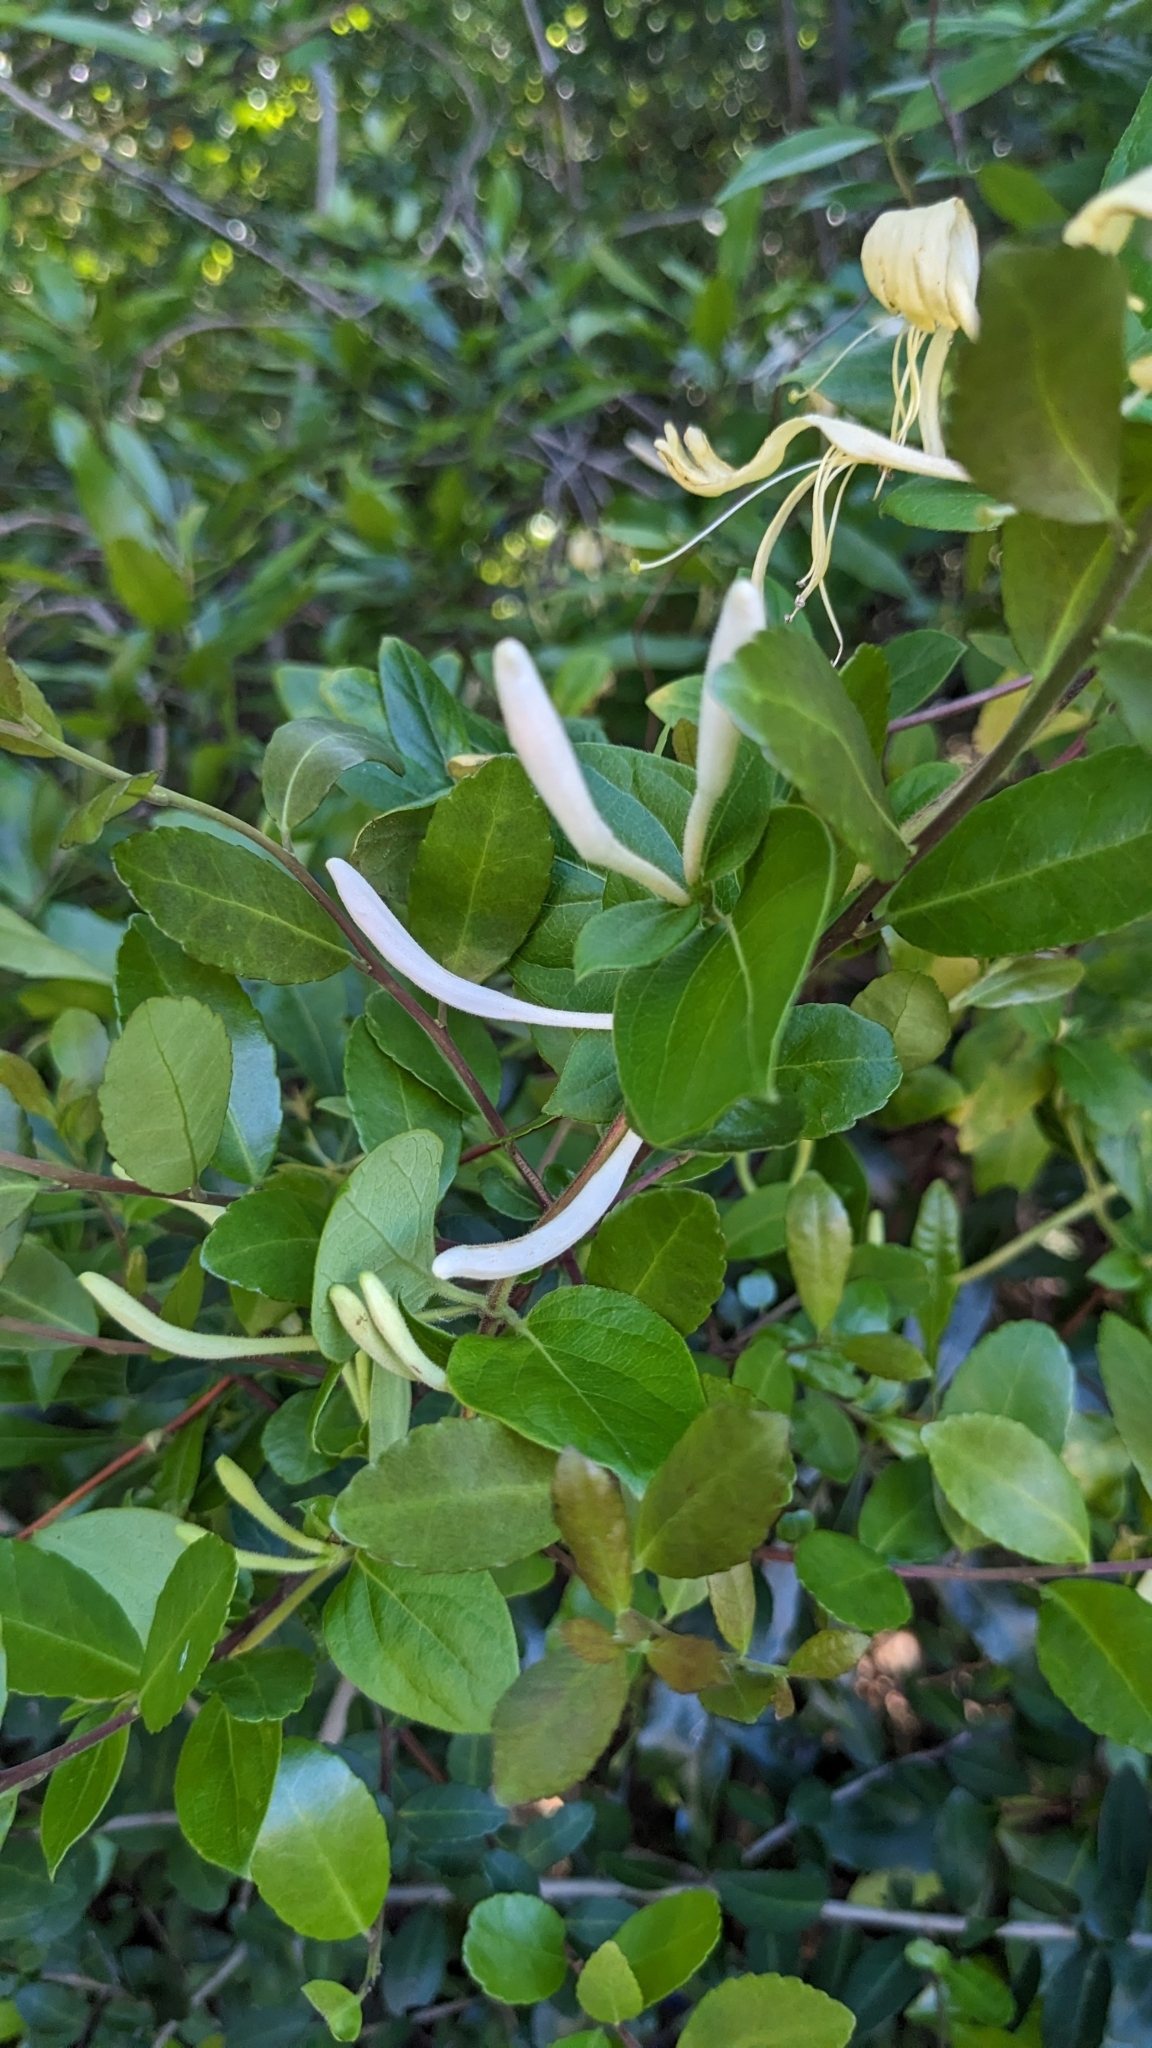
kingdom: Plantae
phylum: Tracheophyta
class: Magnoliopsida
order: Dipsacales
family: Caprifoliaceae
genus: Lonicera
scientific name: Lonicera japonica
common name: Japanese honeysuckle
